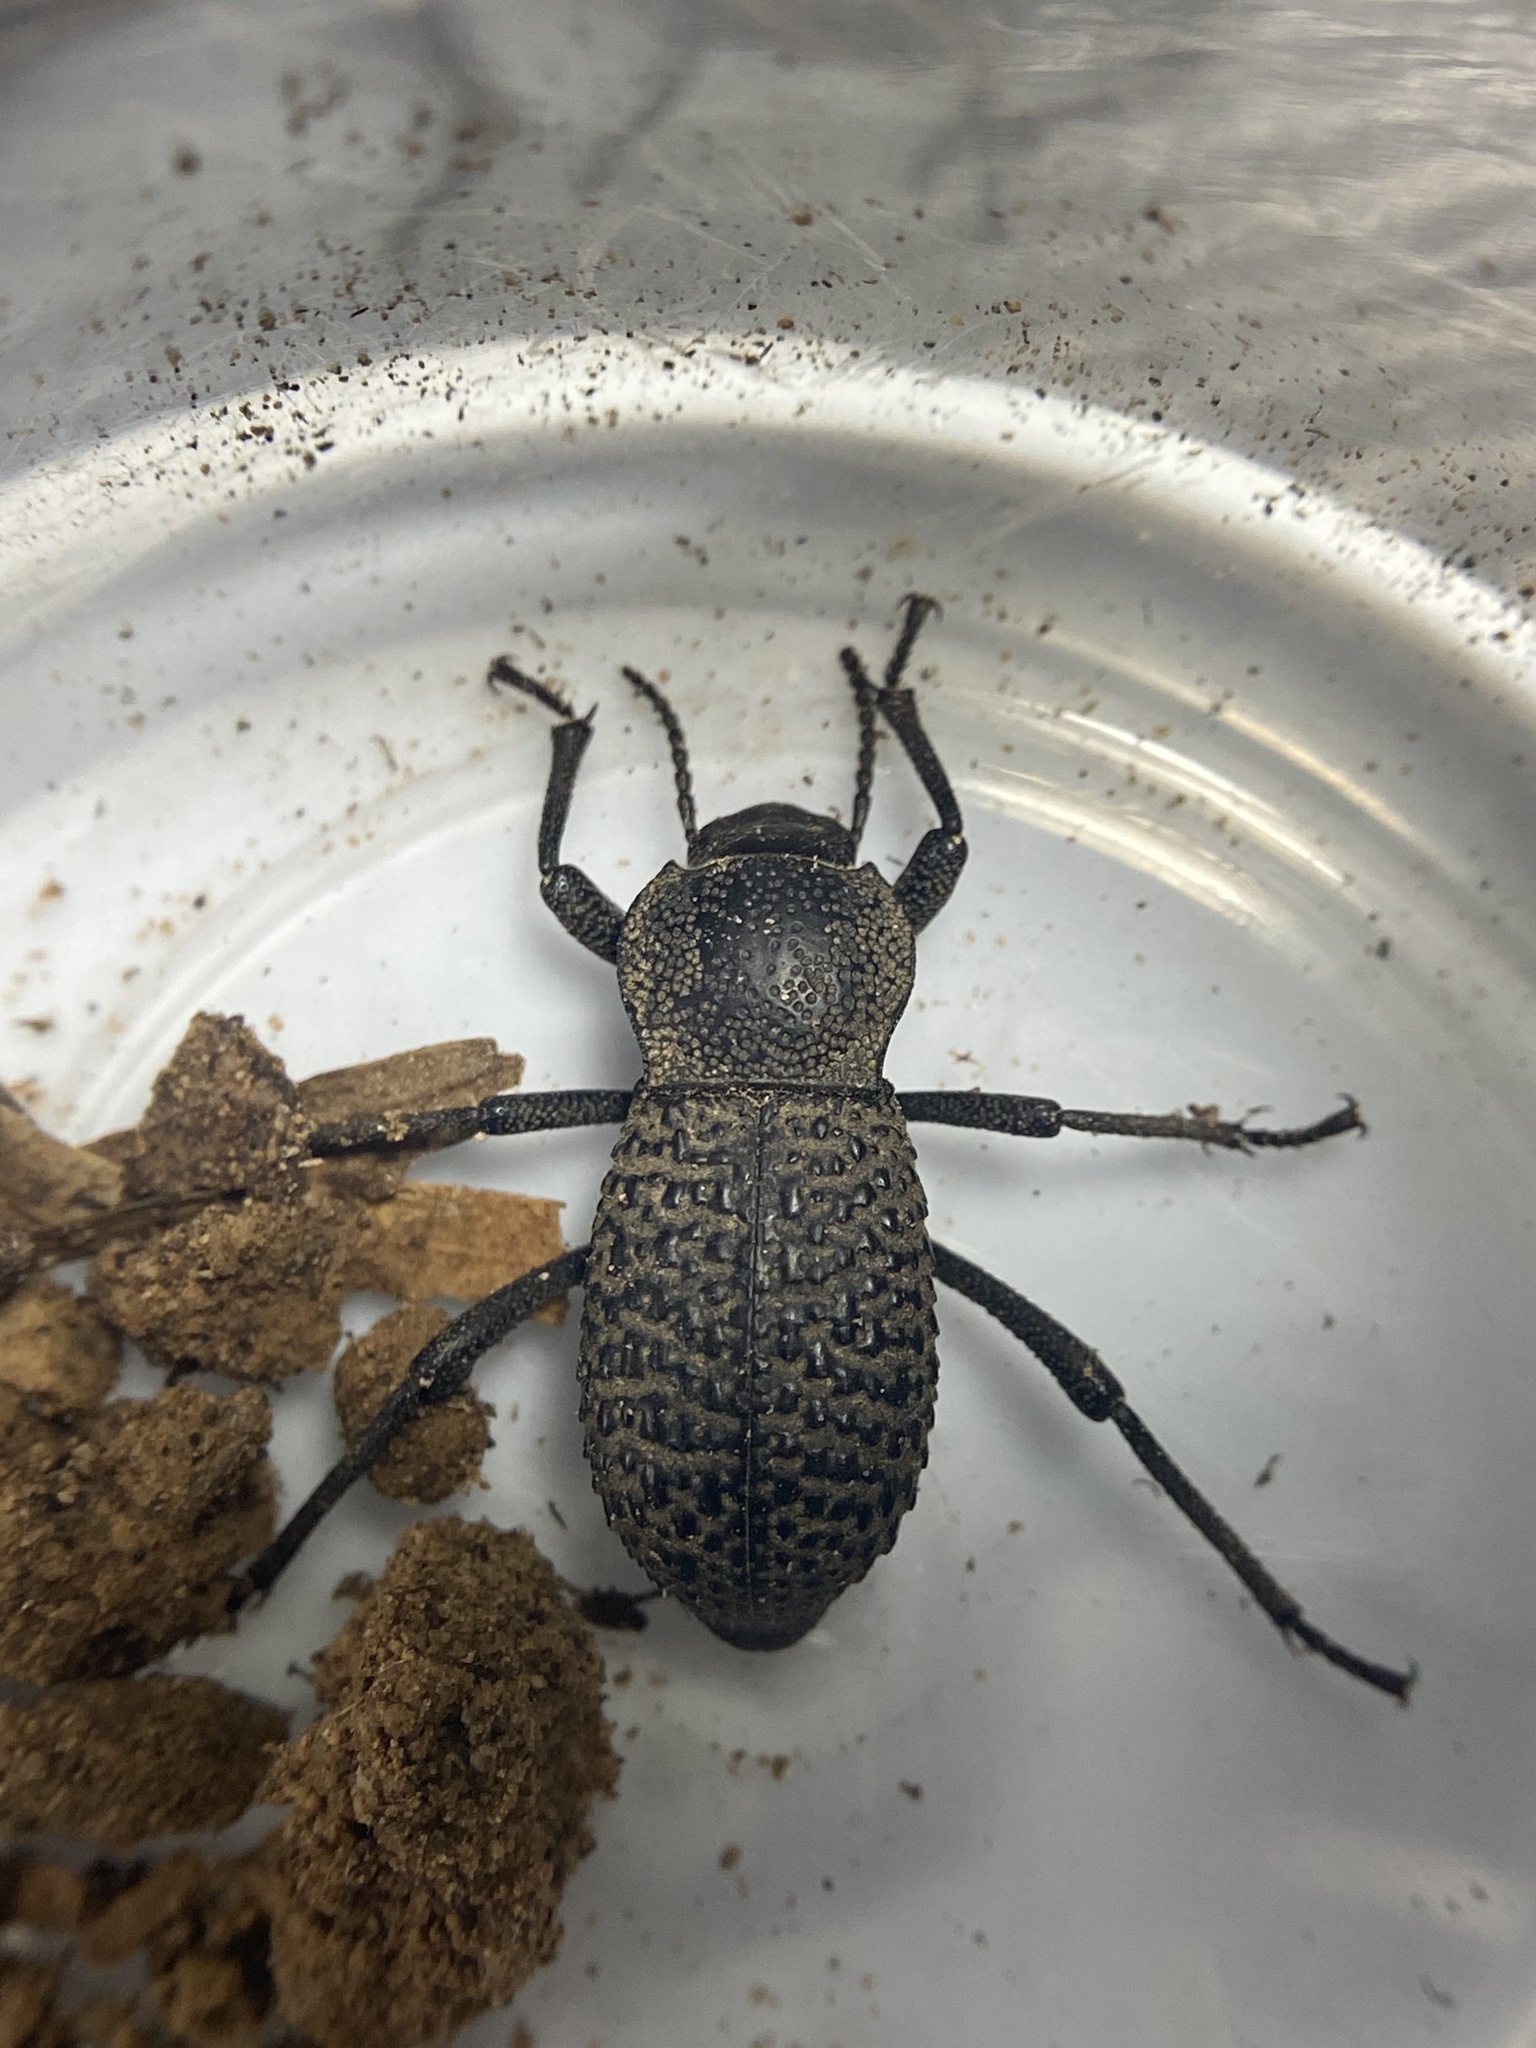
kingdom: Animalia
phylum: Arthropoda
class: Insecta
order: Coleoptera
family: Tenebrionidae
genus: Cryptoglossa
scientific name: Cryptoglossa variolosa
